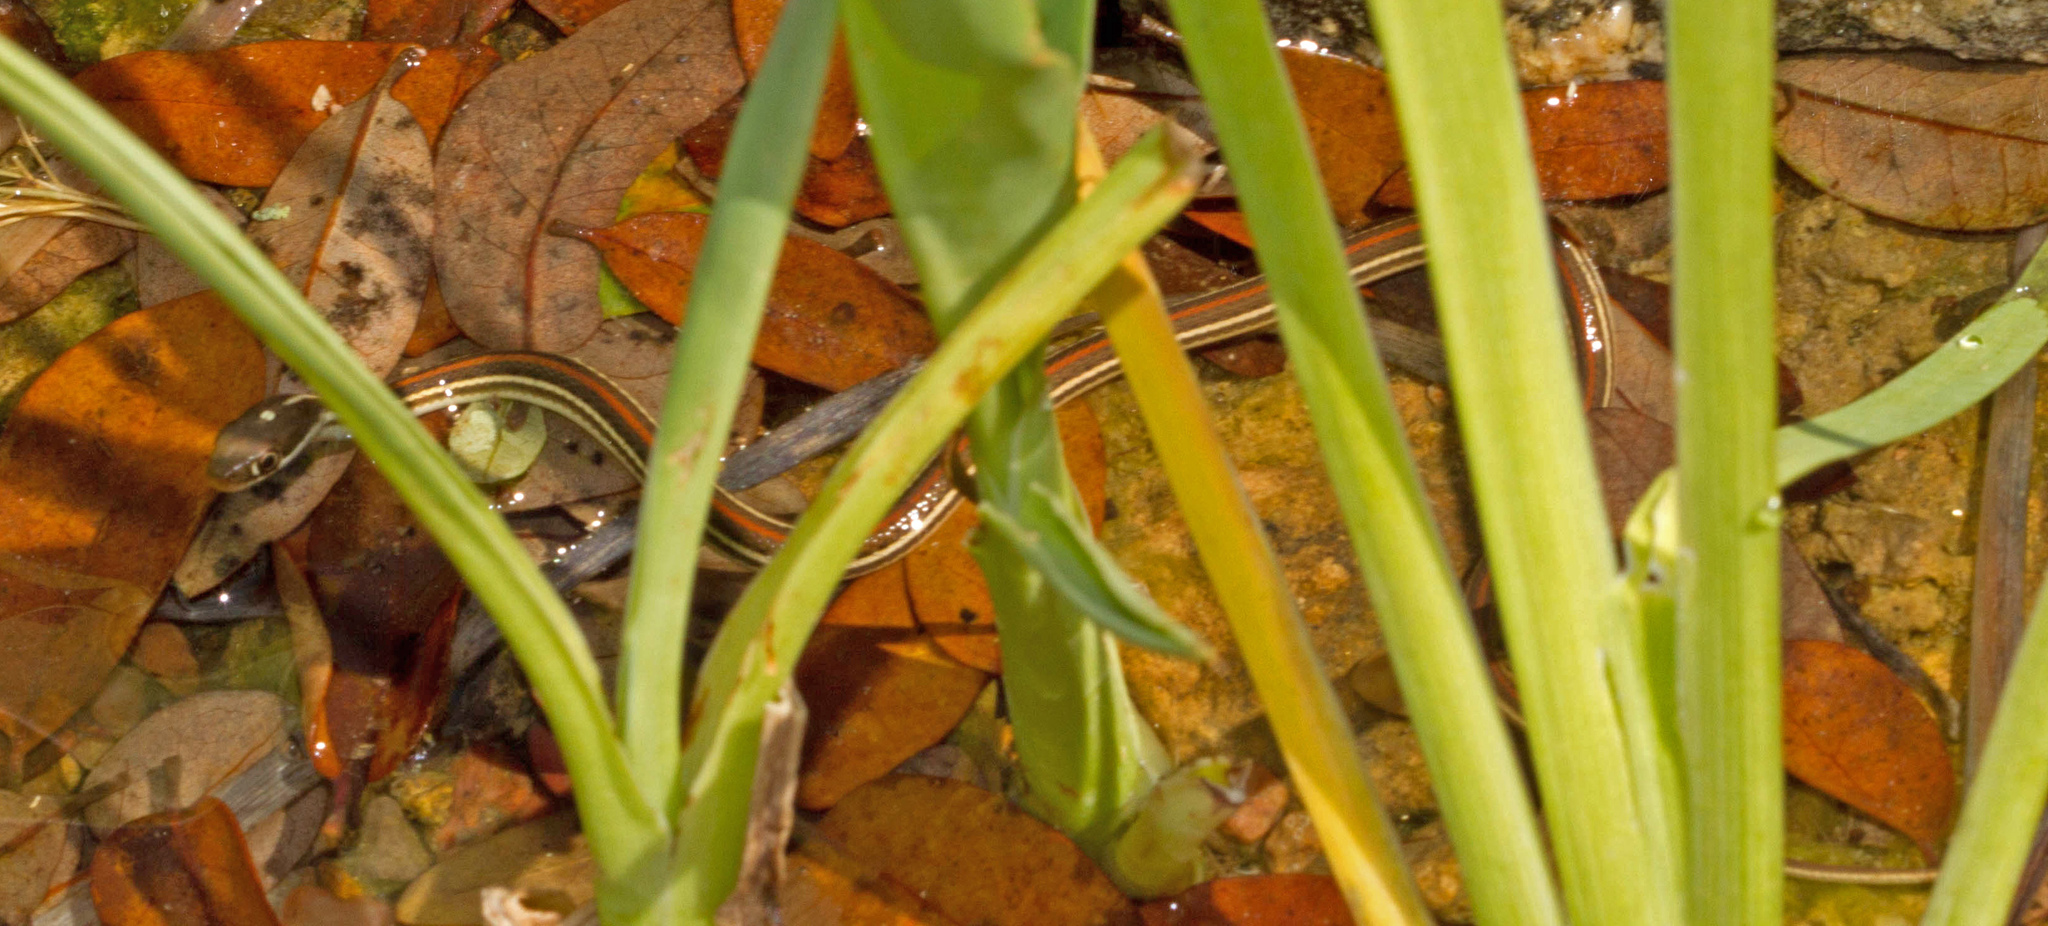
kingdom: Animalia
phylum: Chordata
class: Squamata
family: Colubridae
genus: Thamnophis
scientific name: Thamnophis proximus
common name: Western ribbon snake
